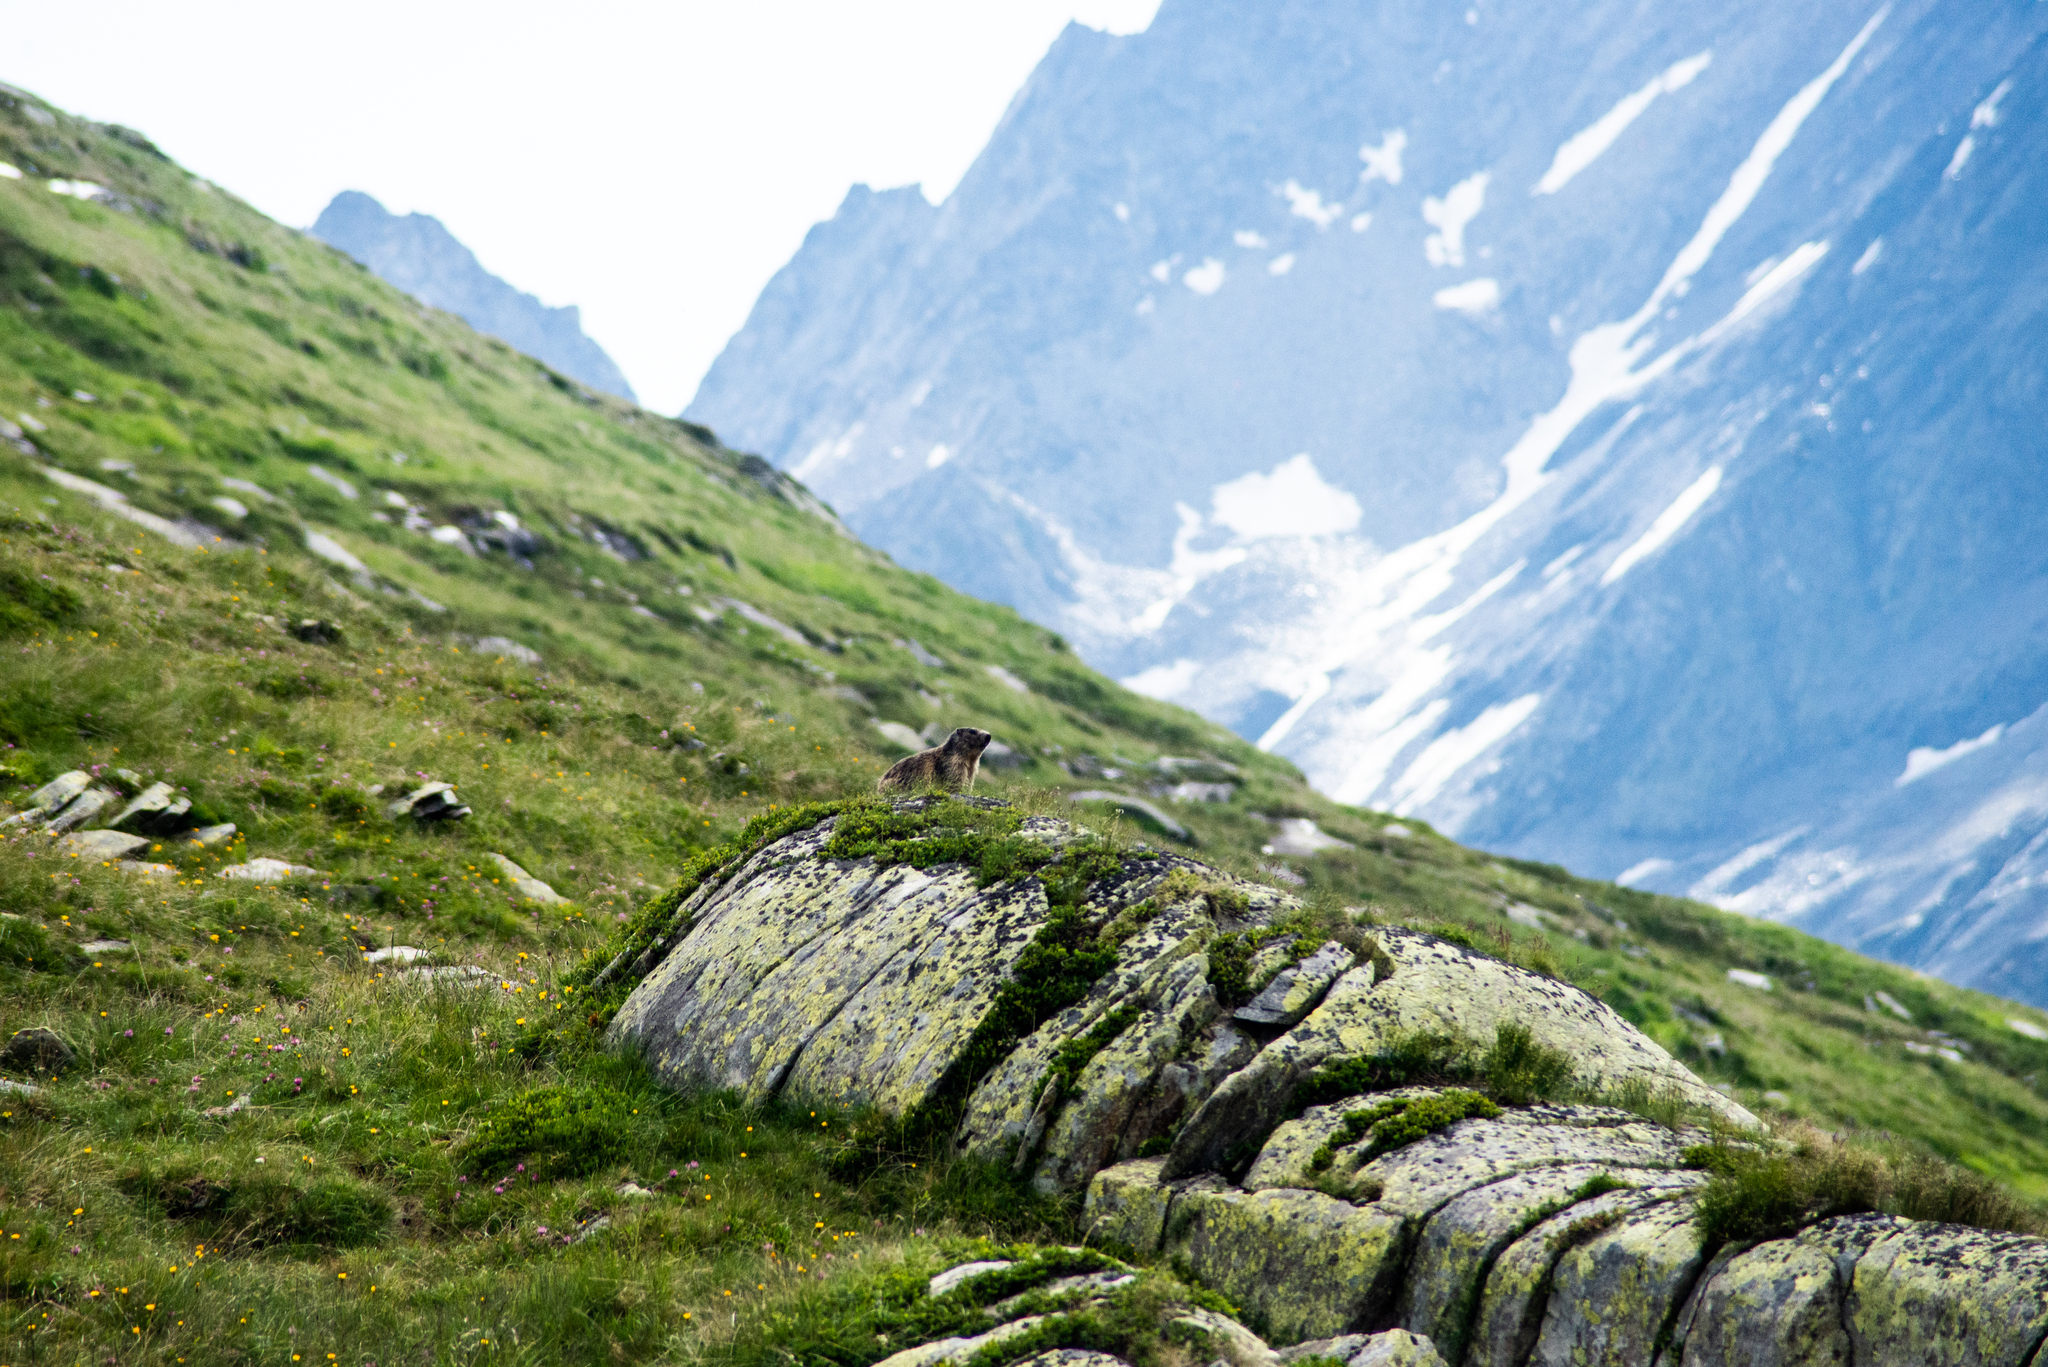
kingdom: Animalia
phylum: Chordata
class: Mammalia
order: Rodentia
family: Sciuridae
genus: Marmota
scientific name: Marmota marmota
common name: Alpine marmot
